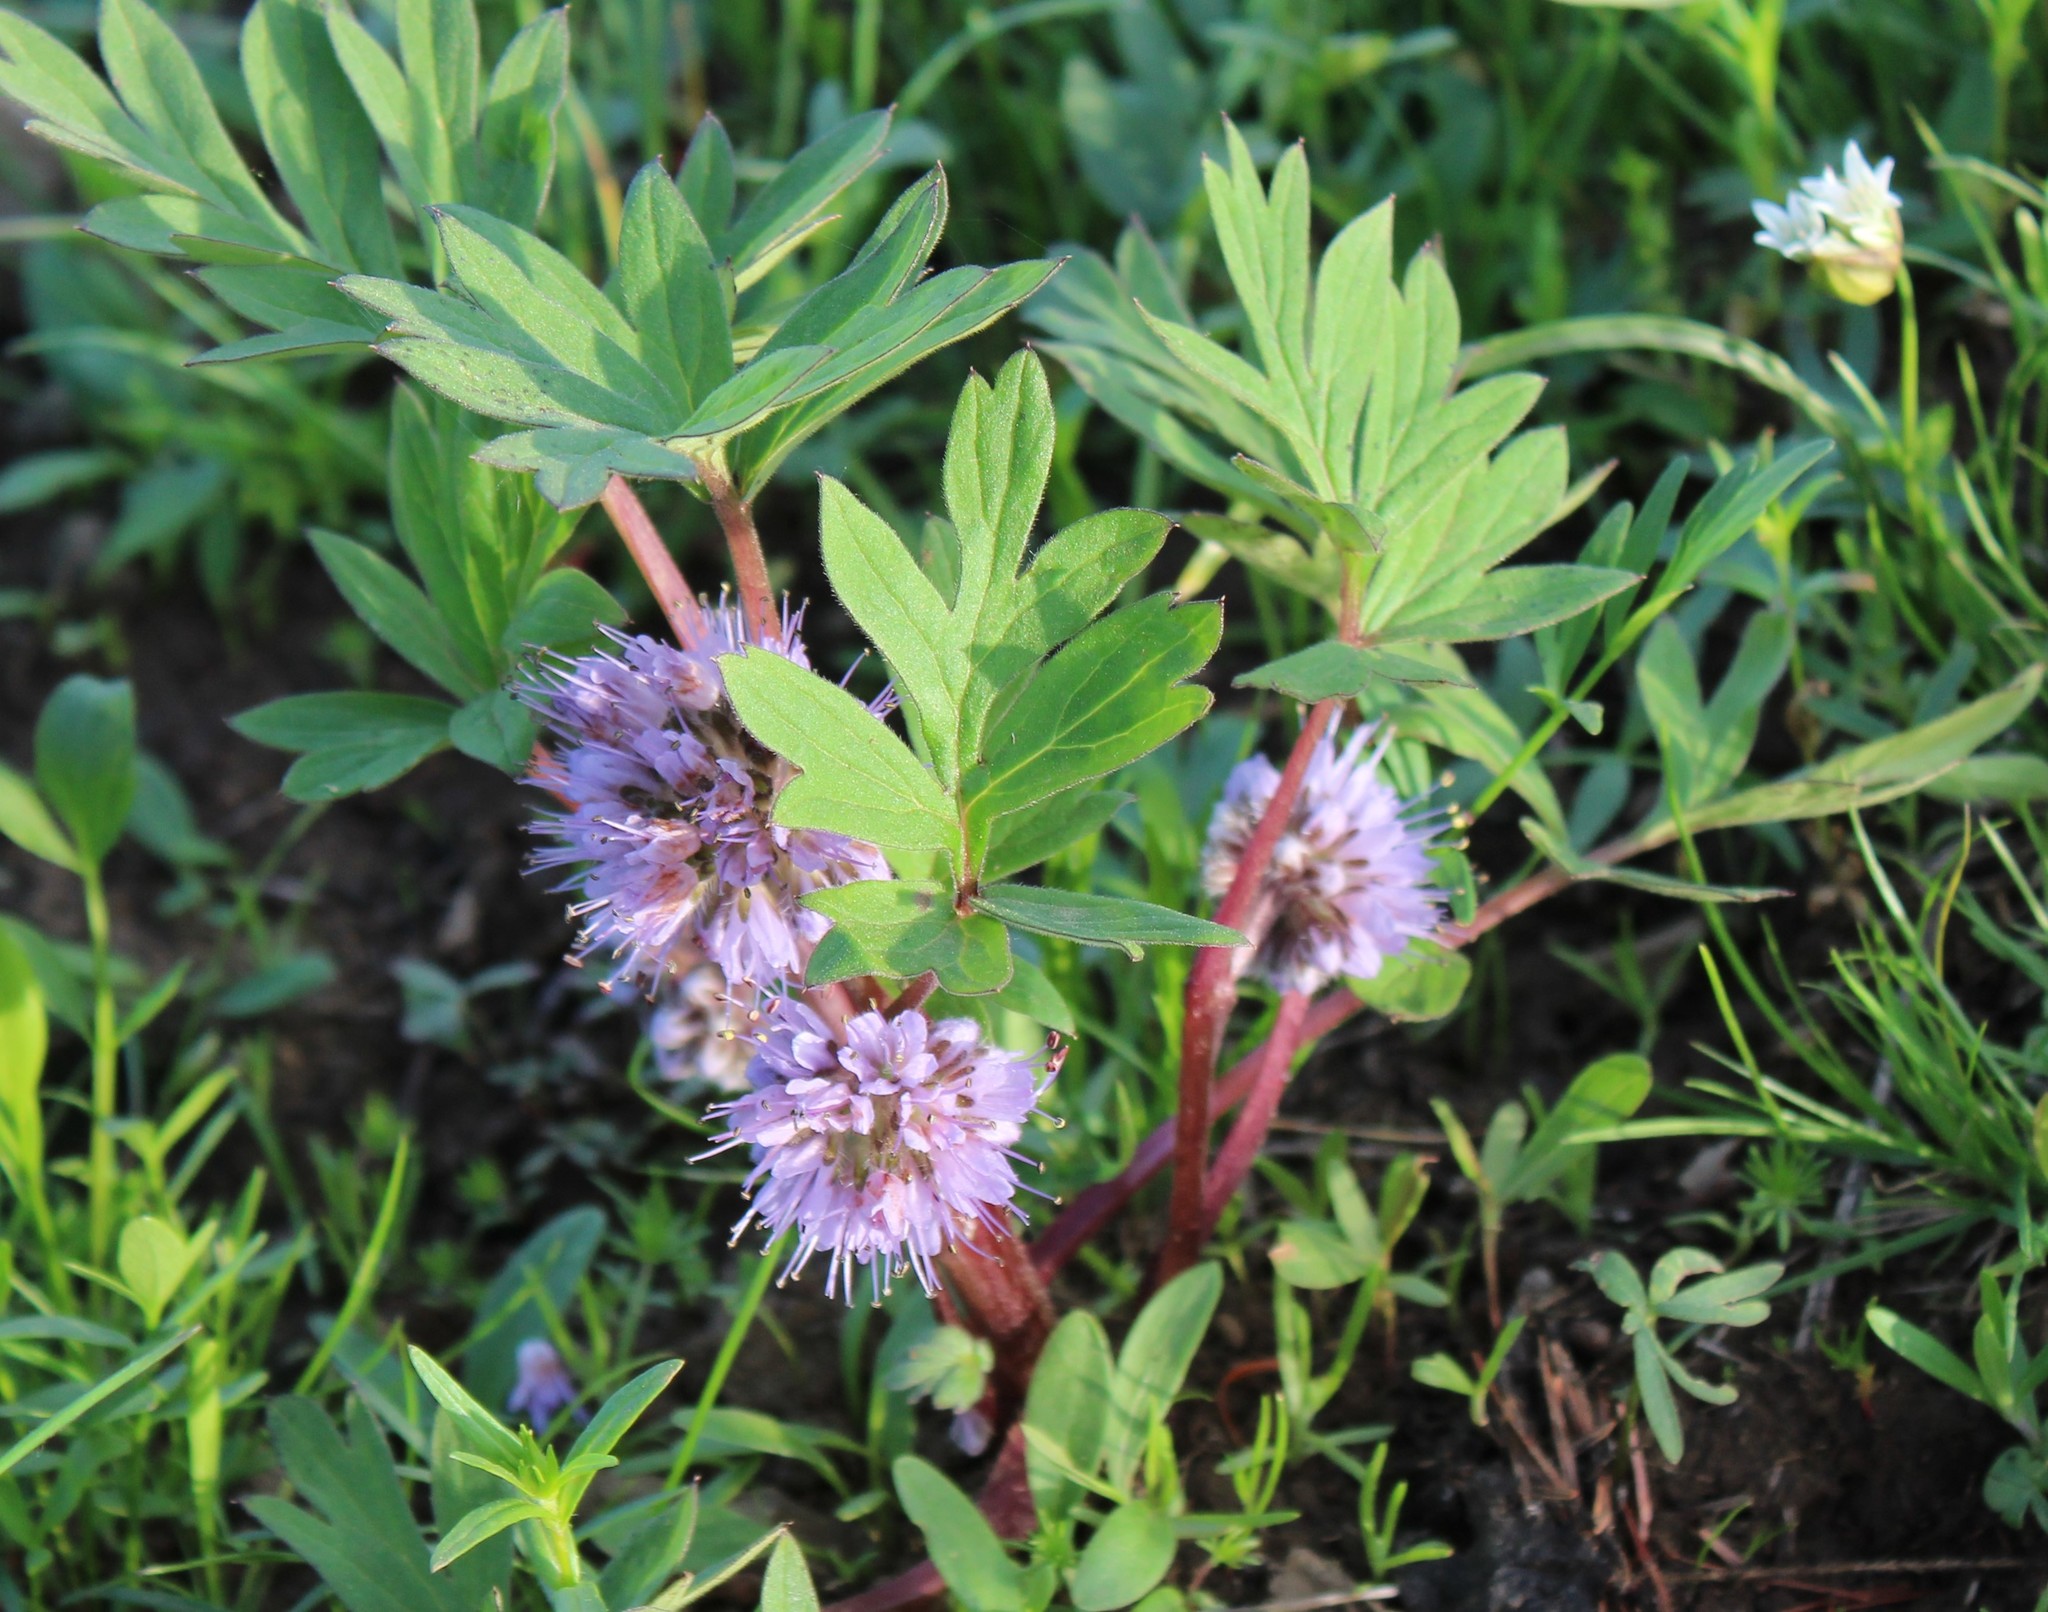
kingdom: Plantae
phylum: Tracheophyta
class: Magnoliopsida
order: Boraginales
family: Hydrophyllaceae
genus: Hydrophyllum
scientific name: Hydrophyllum capitatum
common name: Woollen-breeches
